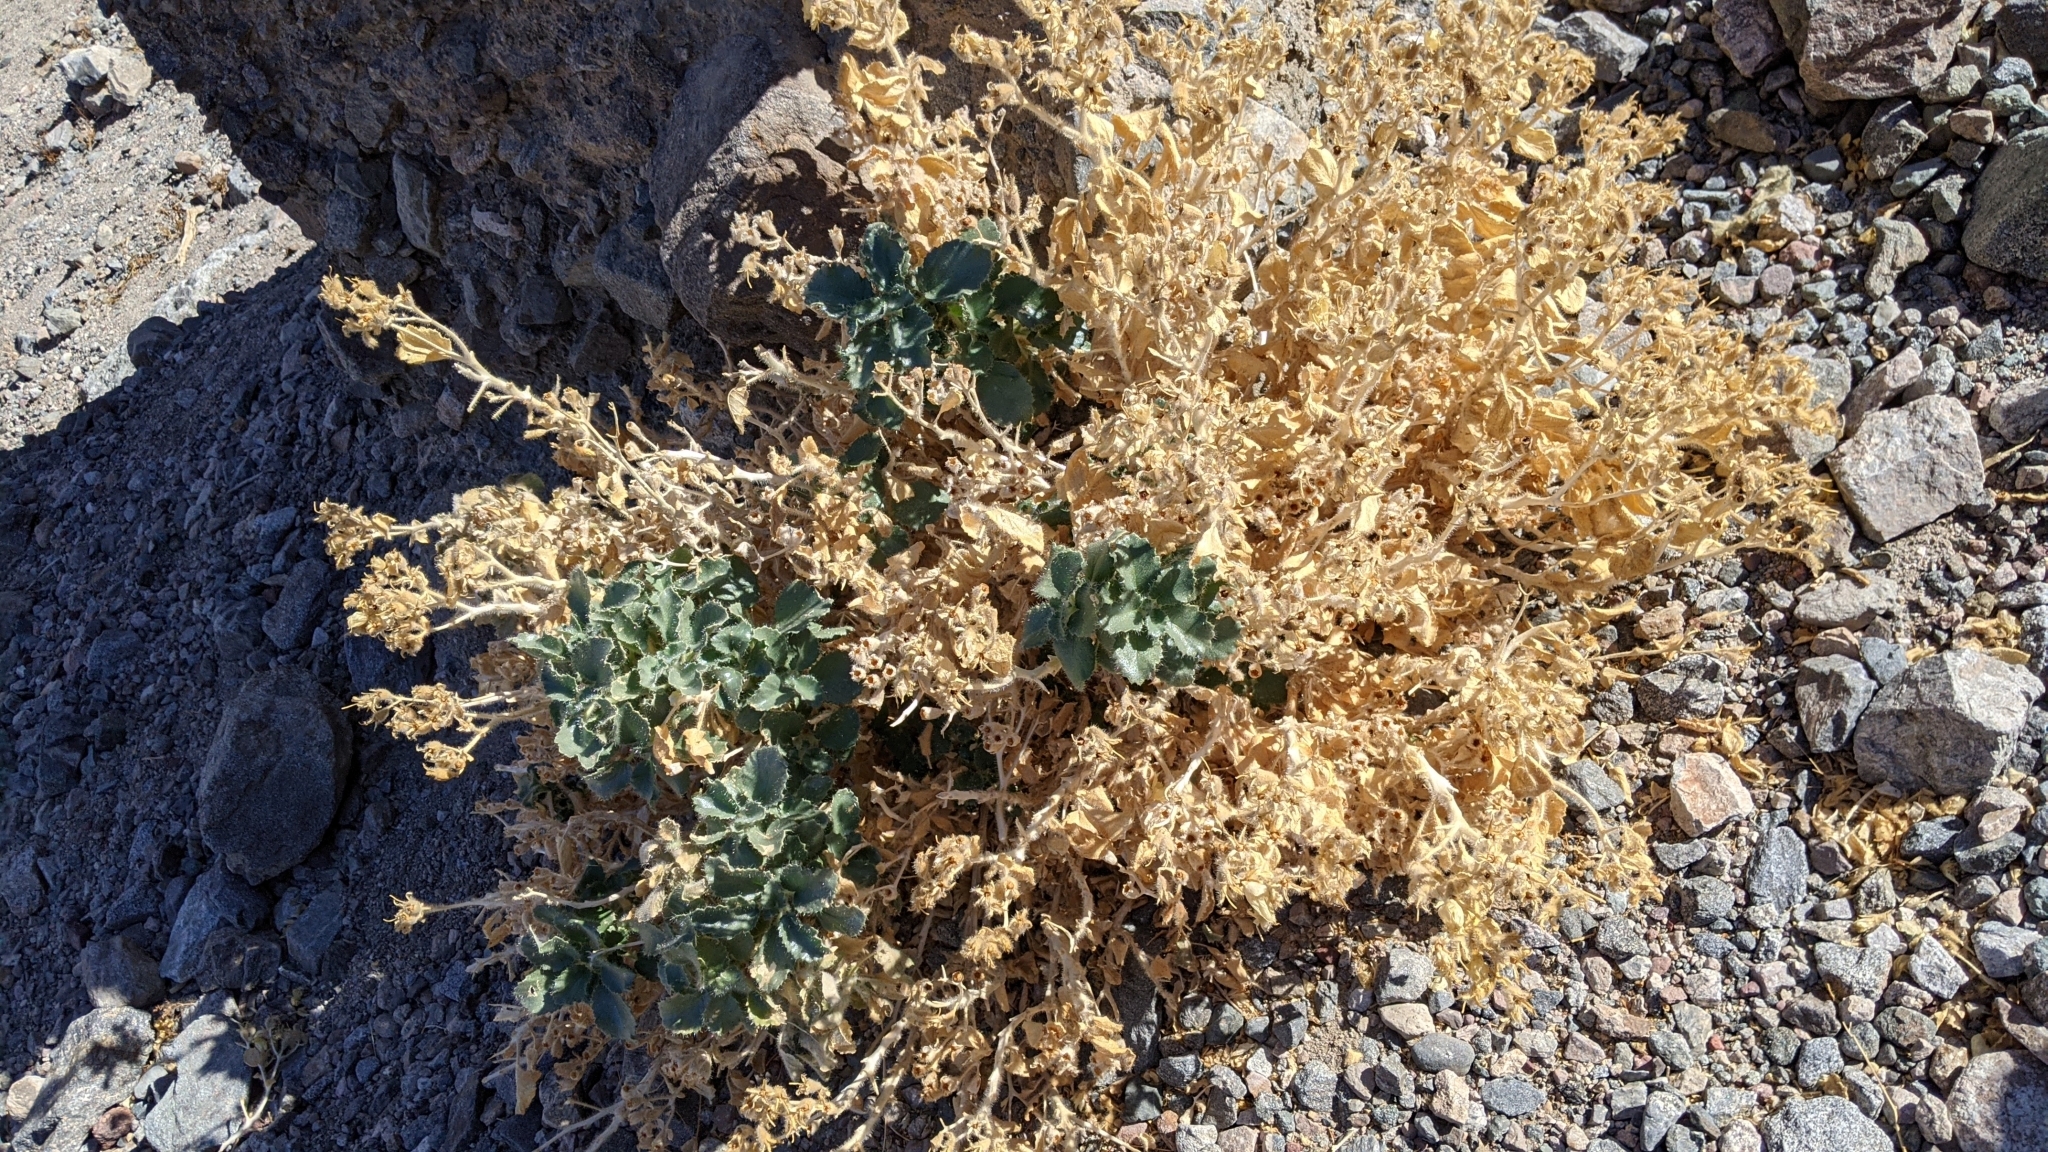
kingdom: Plantae
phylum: Tracheophyta
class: Magnoliopsida
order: Cornales
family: Loasaceae
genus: Eucnide
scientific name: Eucnide urens
